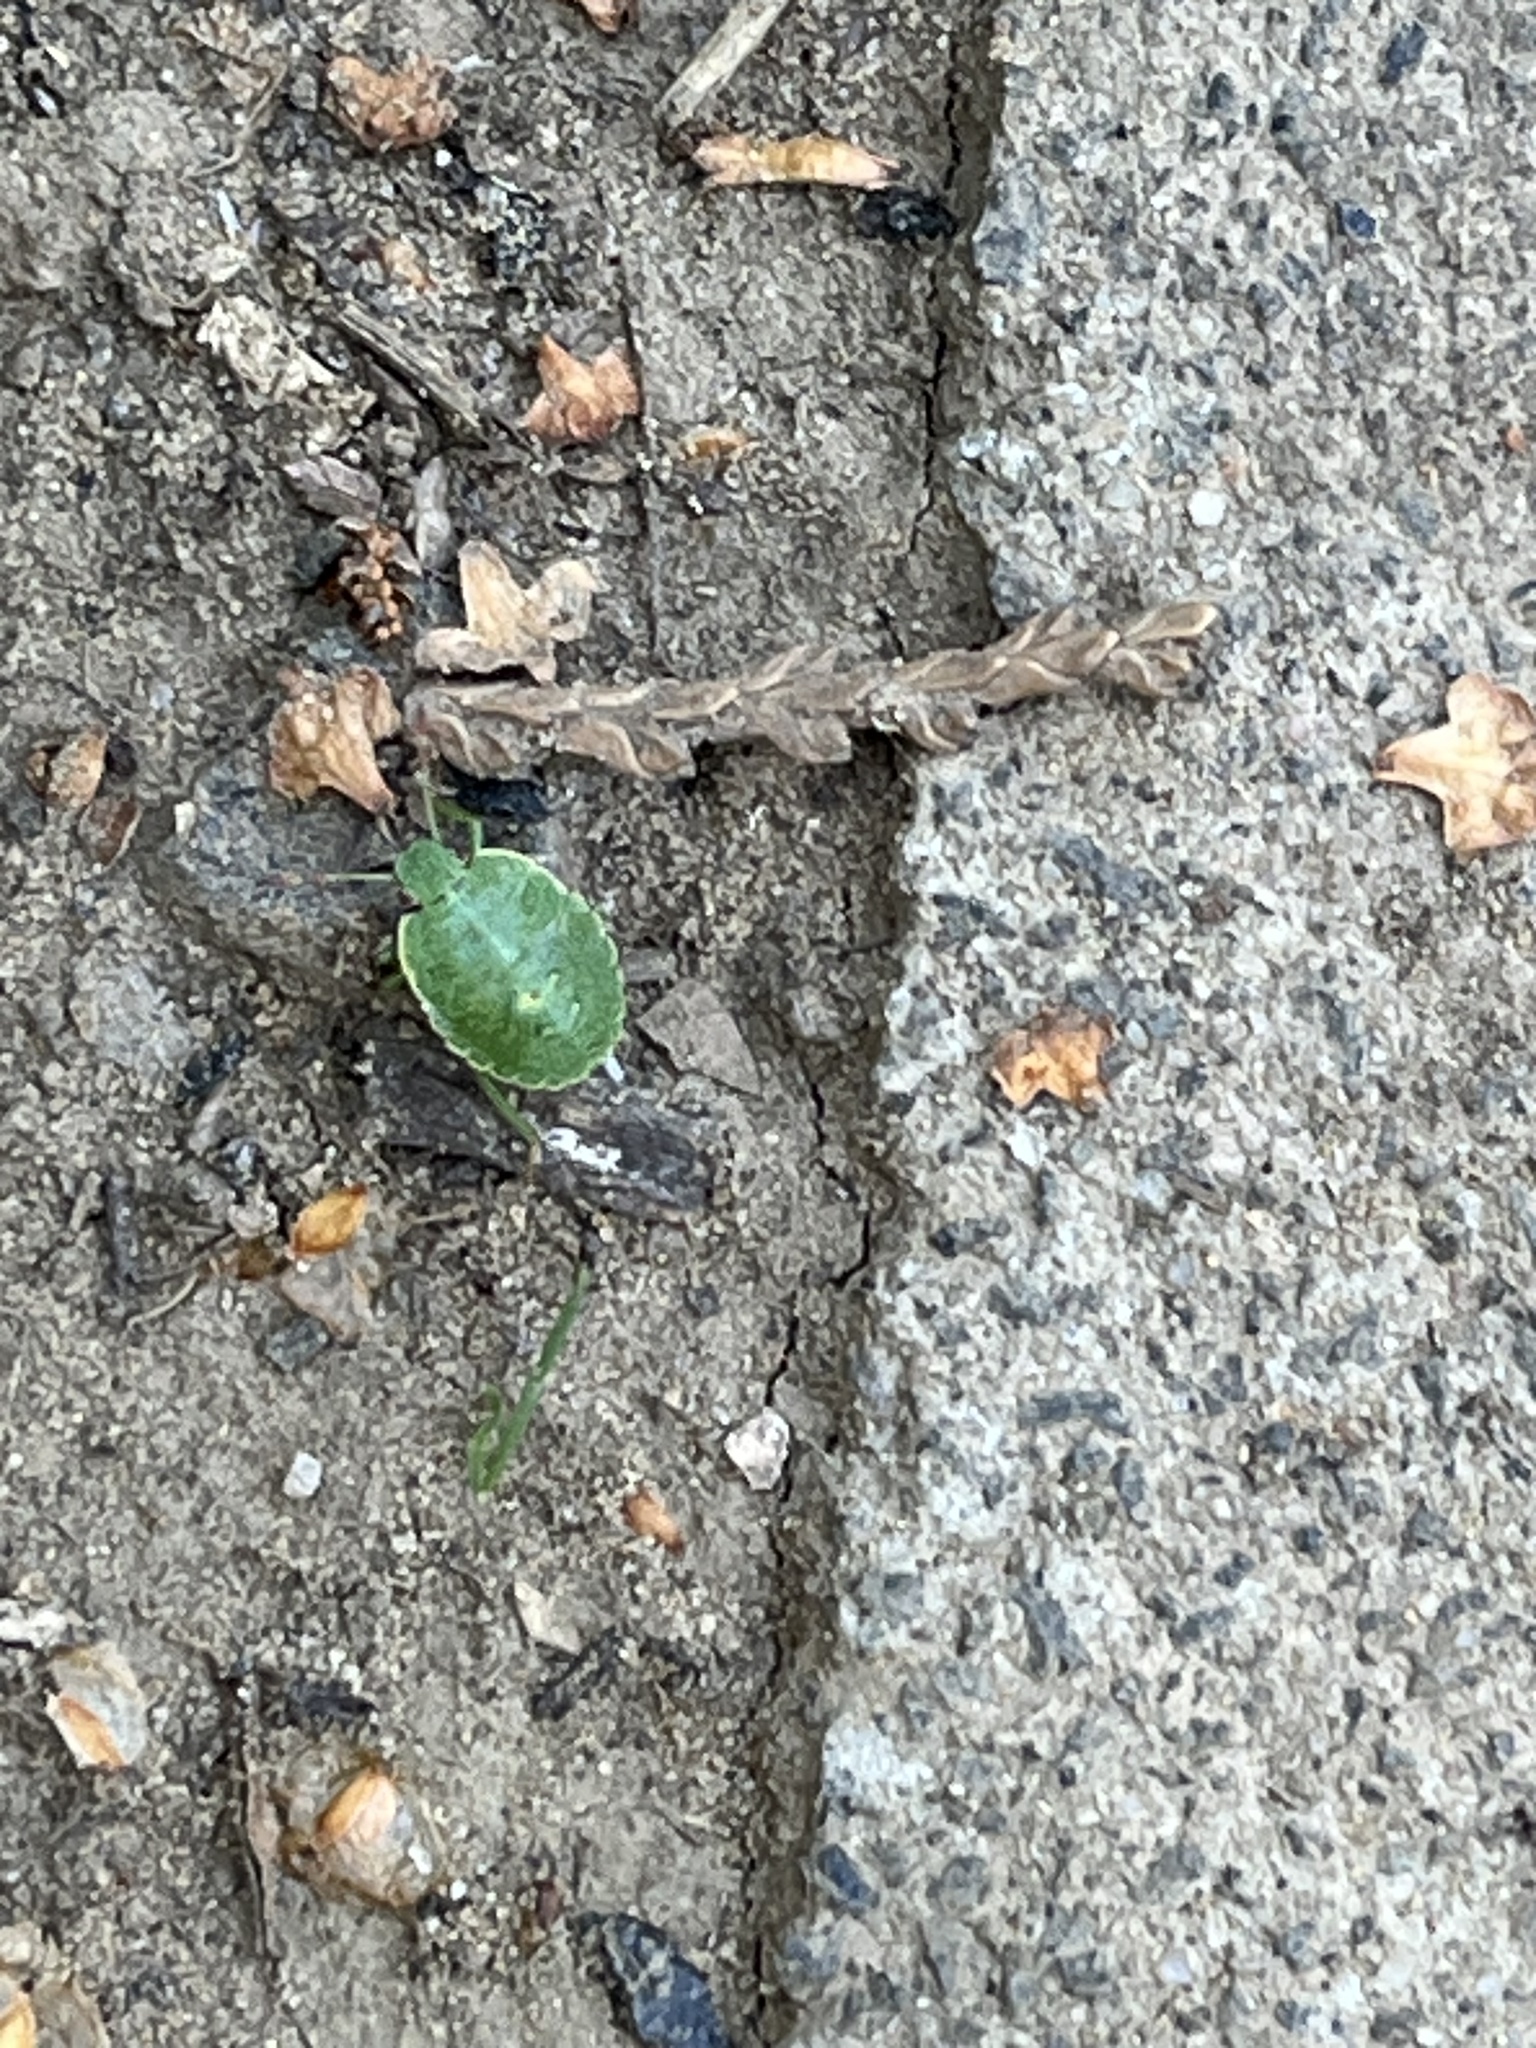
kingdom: Animalia
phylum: Arthropoda
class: Insecta
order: Hemiptera
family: Pentatomidae
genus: Palomena
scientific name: Palomena prasina
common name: Green shieldbug
